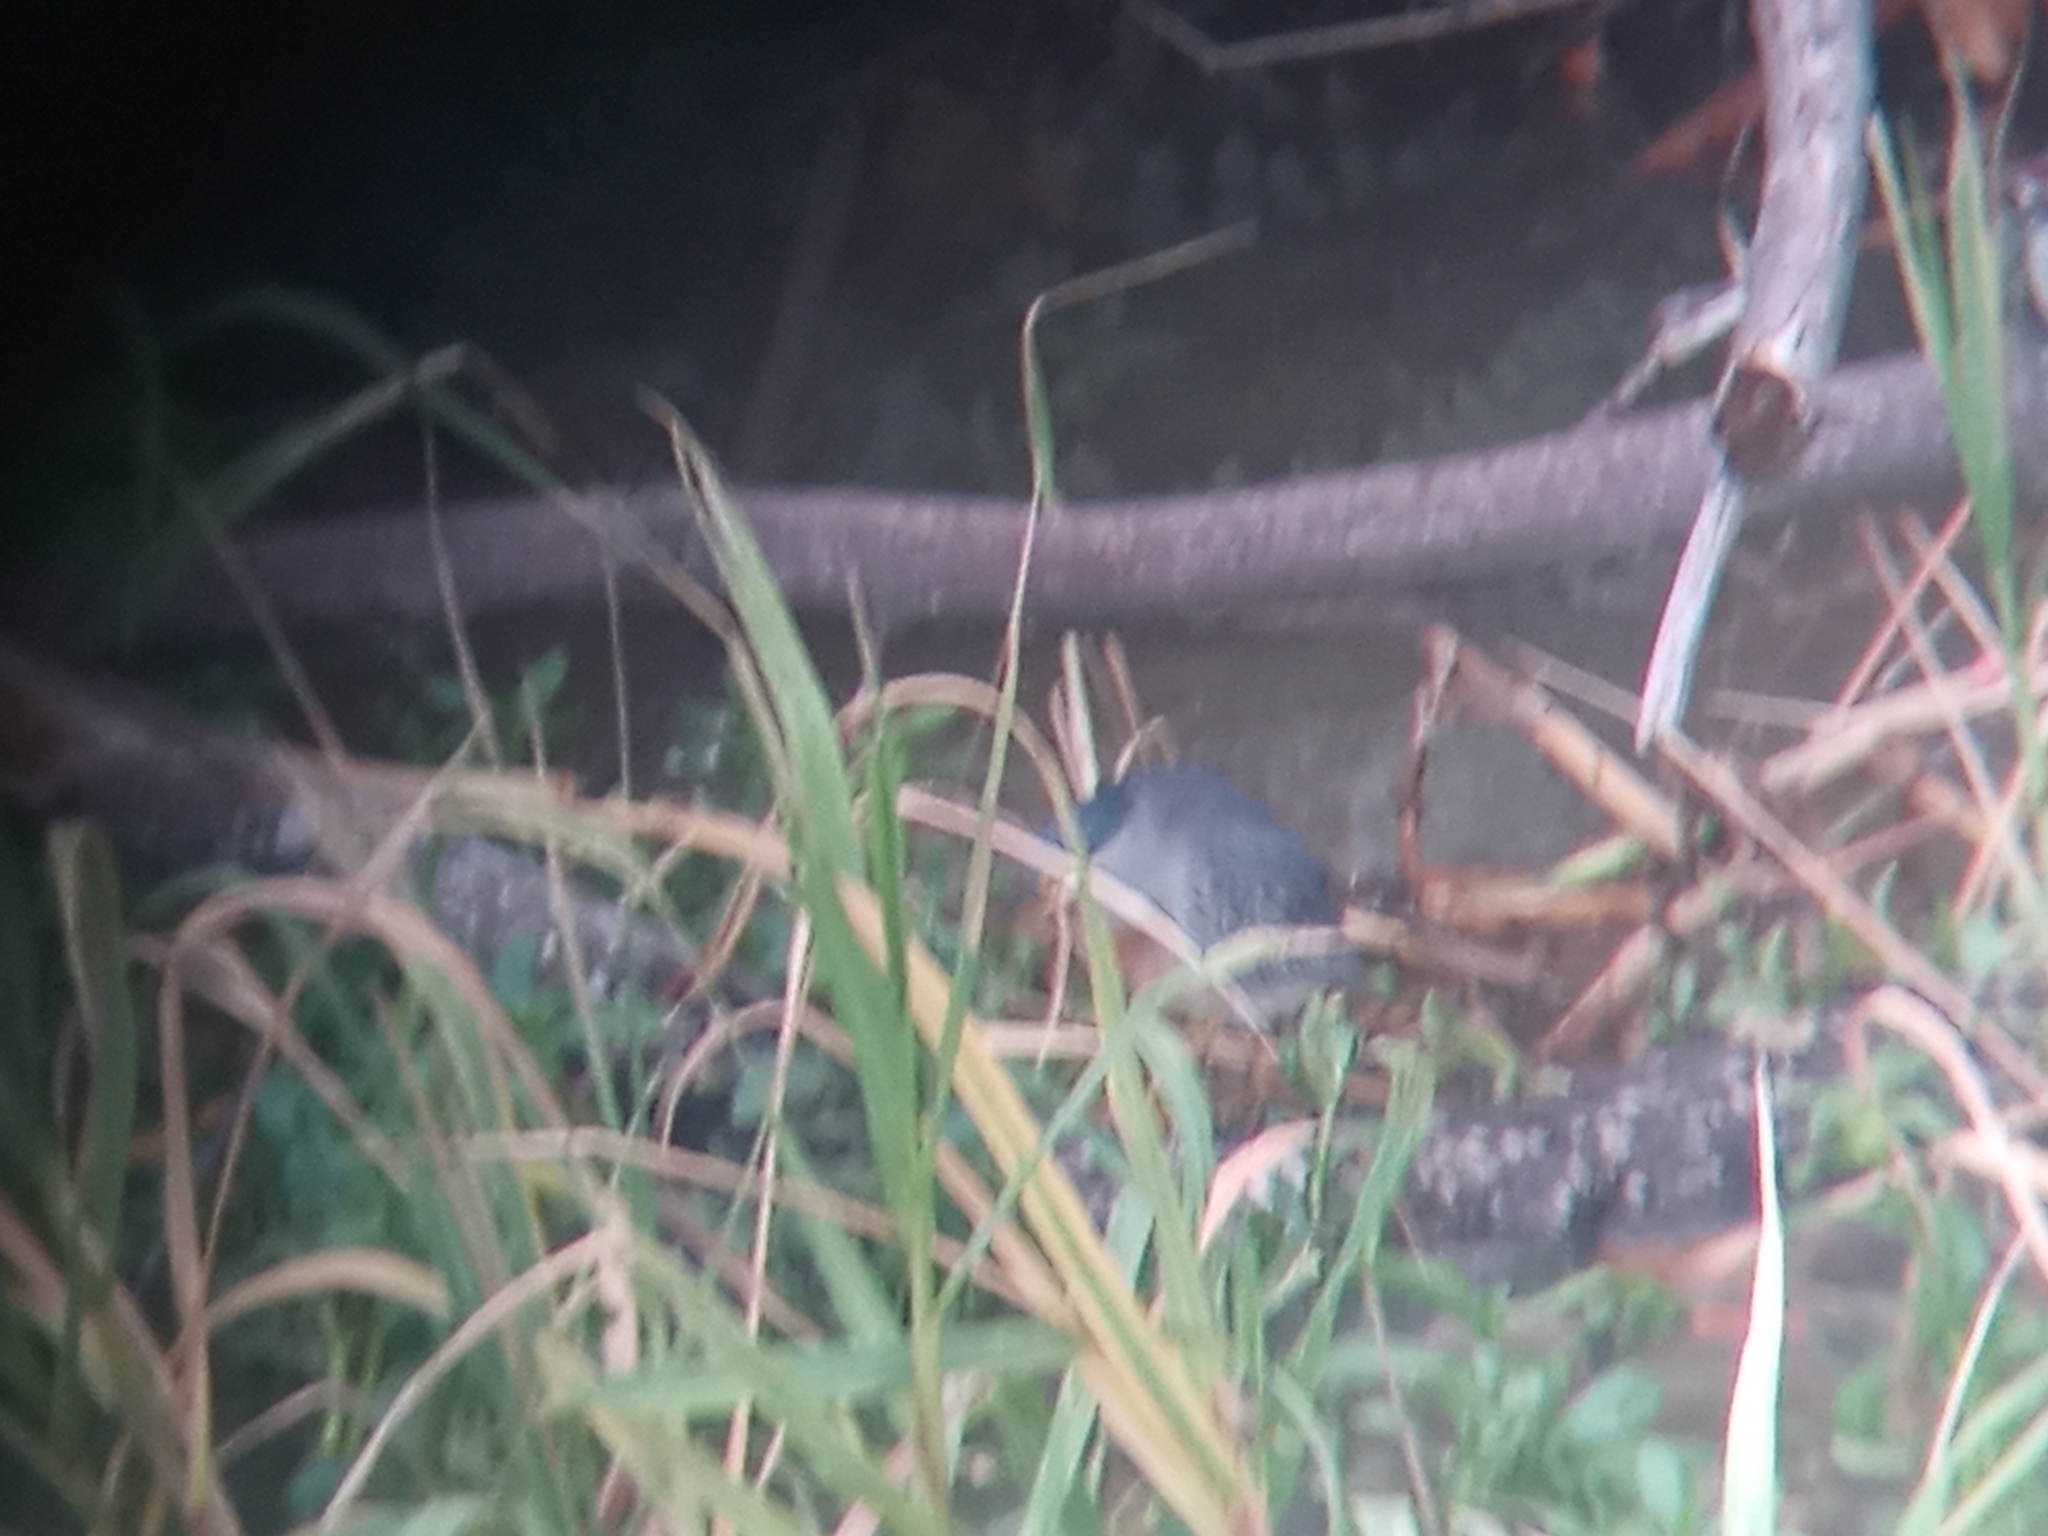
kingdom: Animalia
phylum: Chordata
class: Aves
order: Pelecaniformes
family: Ardeidae
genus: Butorides
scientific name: Butorides striata
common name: Striated heron
